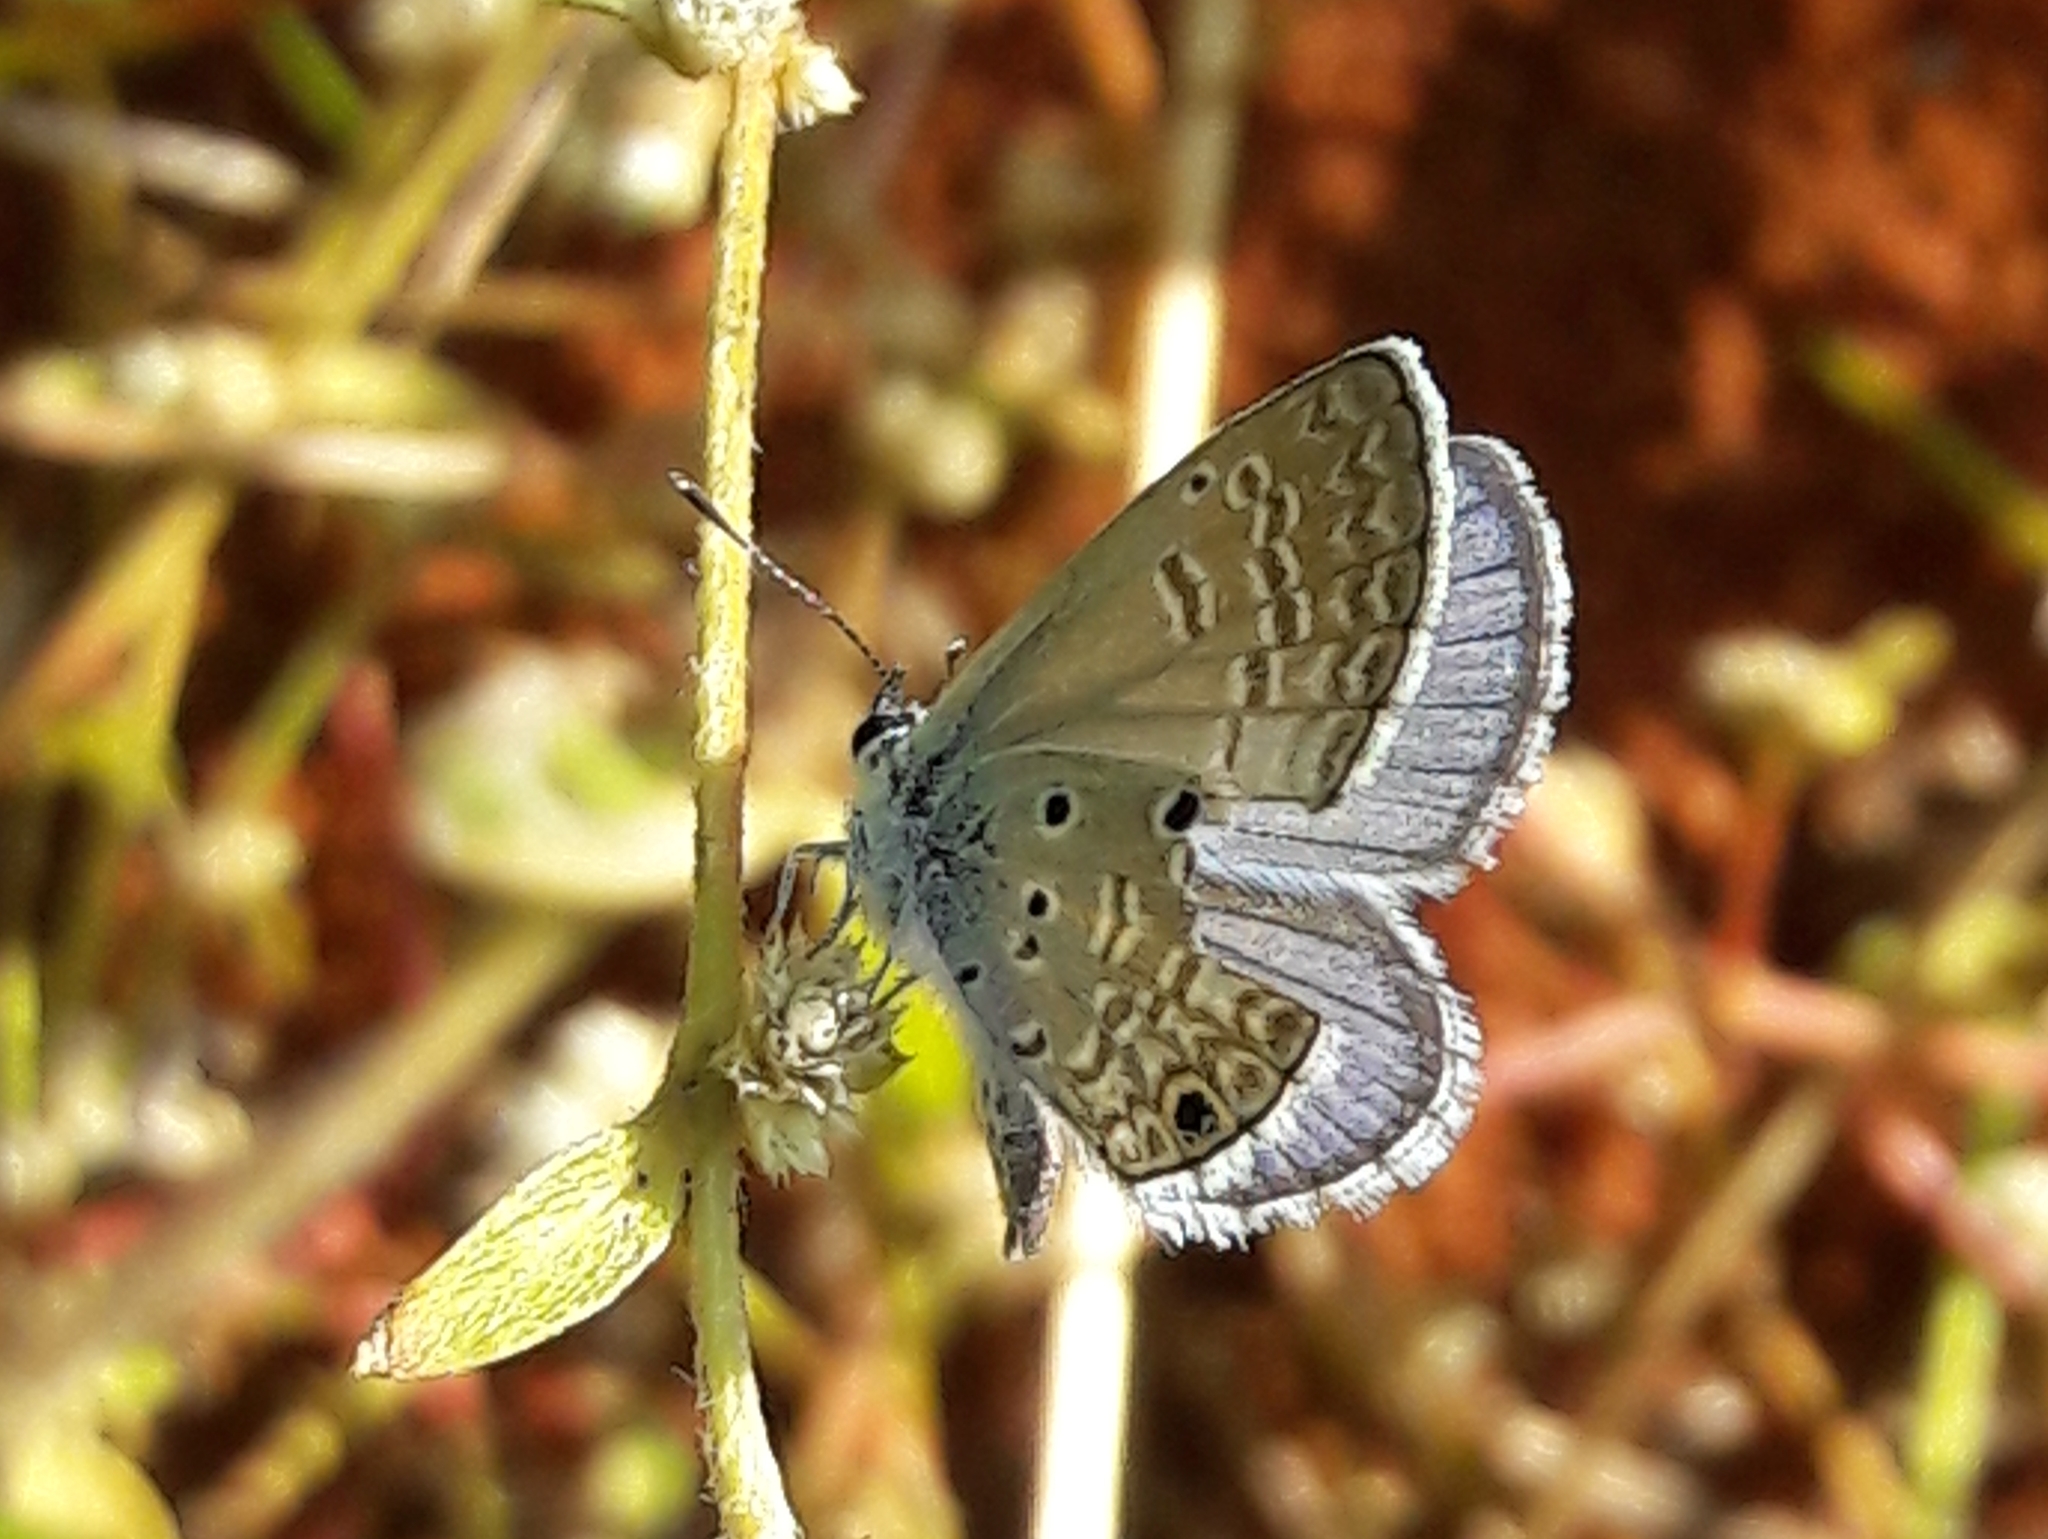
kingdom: Animalia
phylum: Arthropoda
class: Insecta
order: Lepidoptera
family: Lycaenidae
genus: Hemiargus
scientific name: Hemiargus hanno
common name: Common blue
